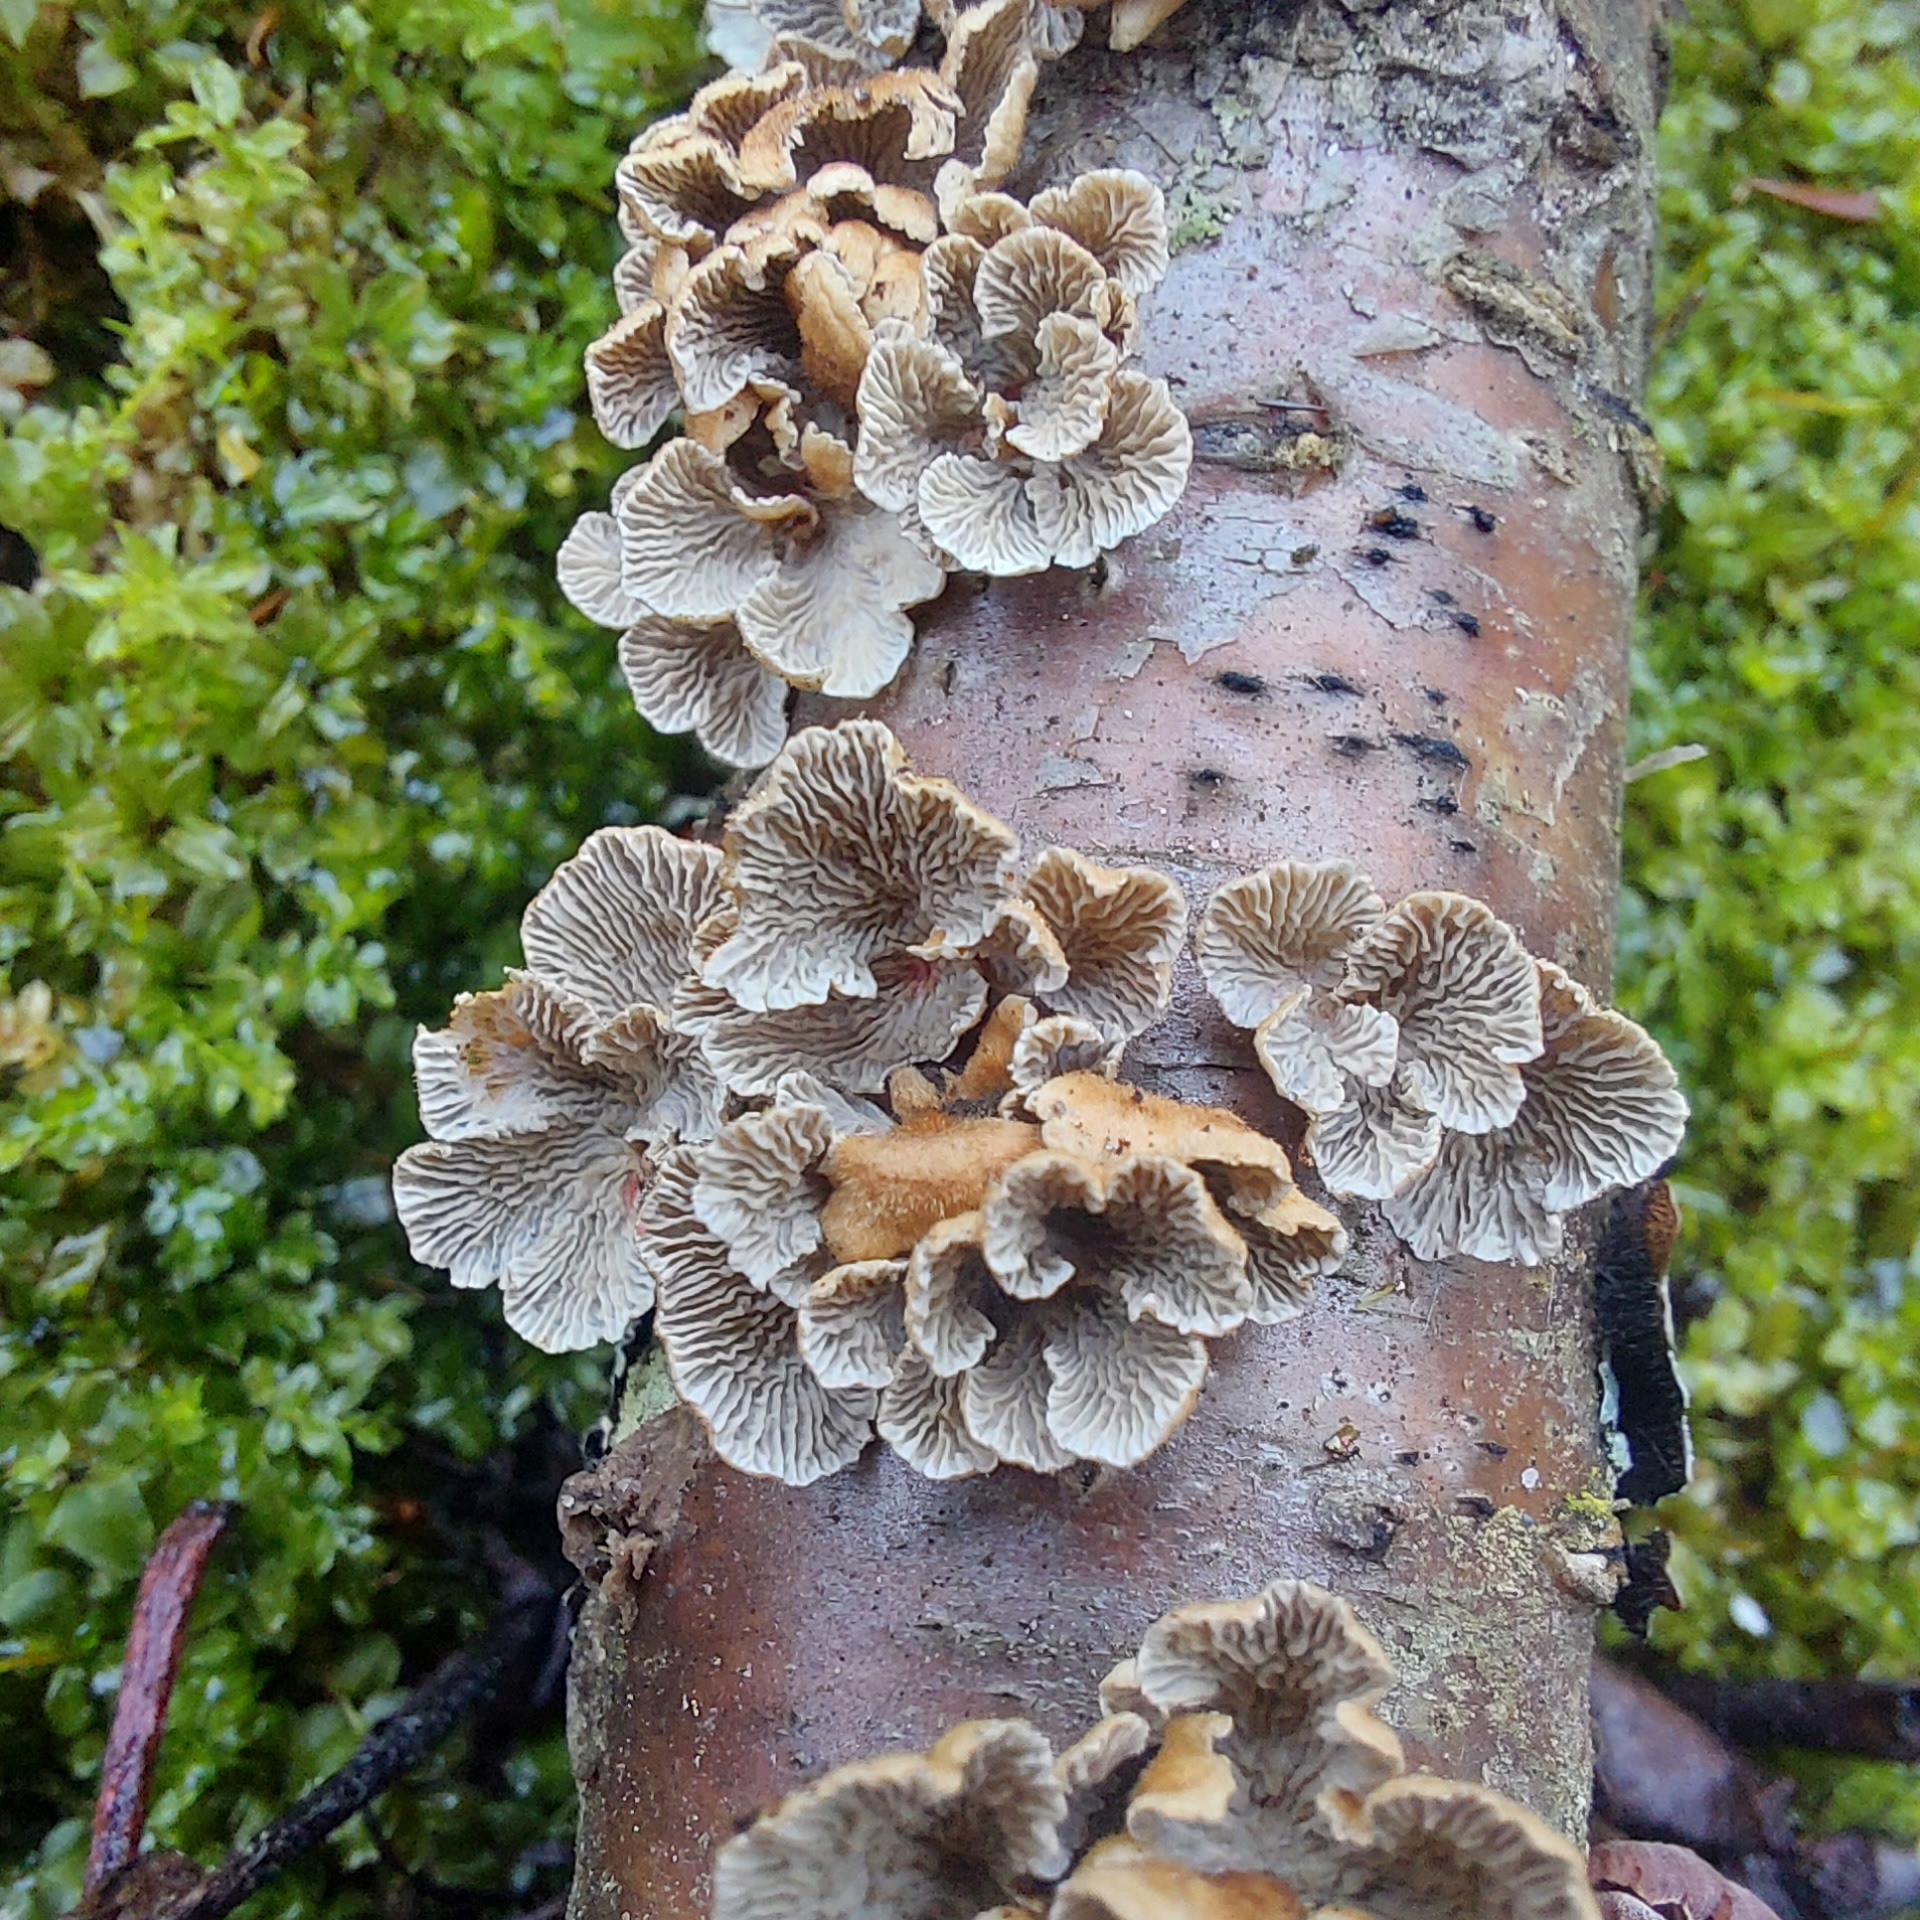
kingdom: Fungi
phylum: Basidiomycota
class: Agaricomycetes
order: Amylocorticiales
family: Amylocorticiaceae
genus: Plicaturopsis
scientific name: Plicaturopsis crispa
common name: Crimped gill
